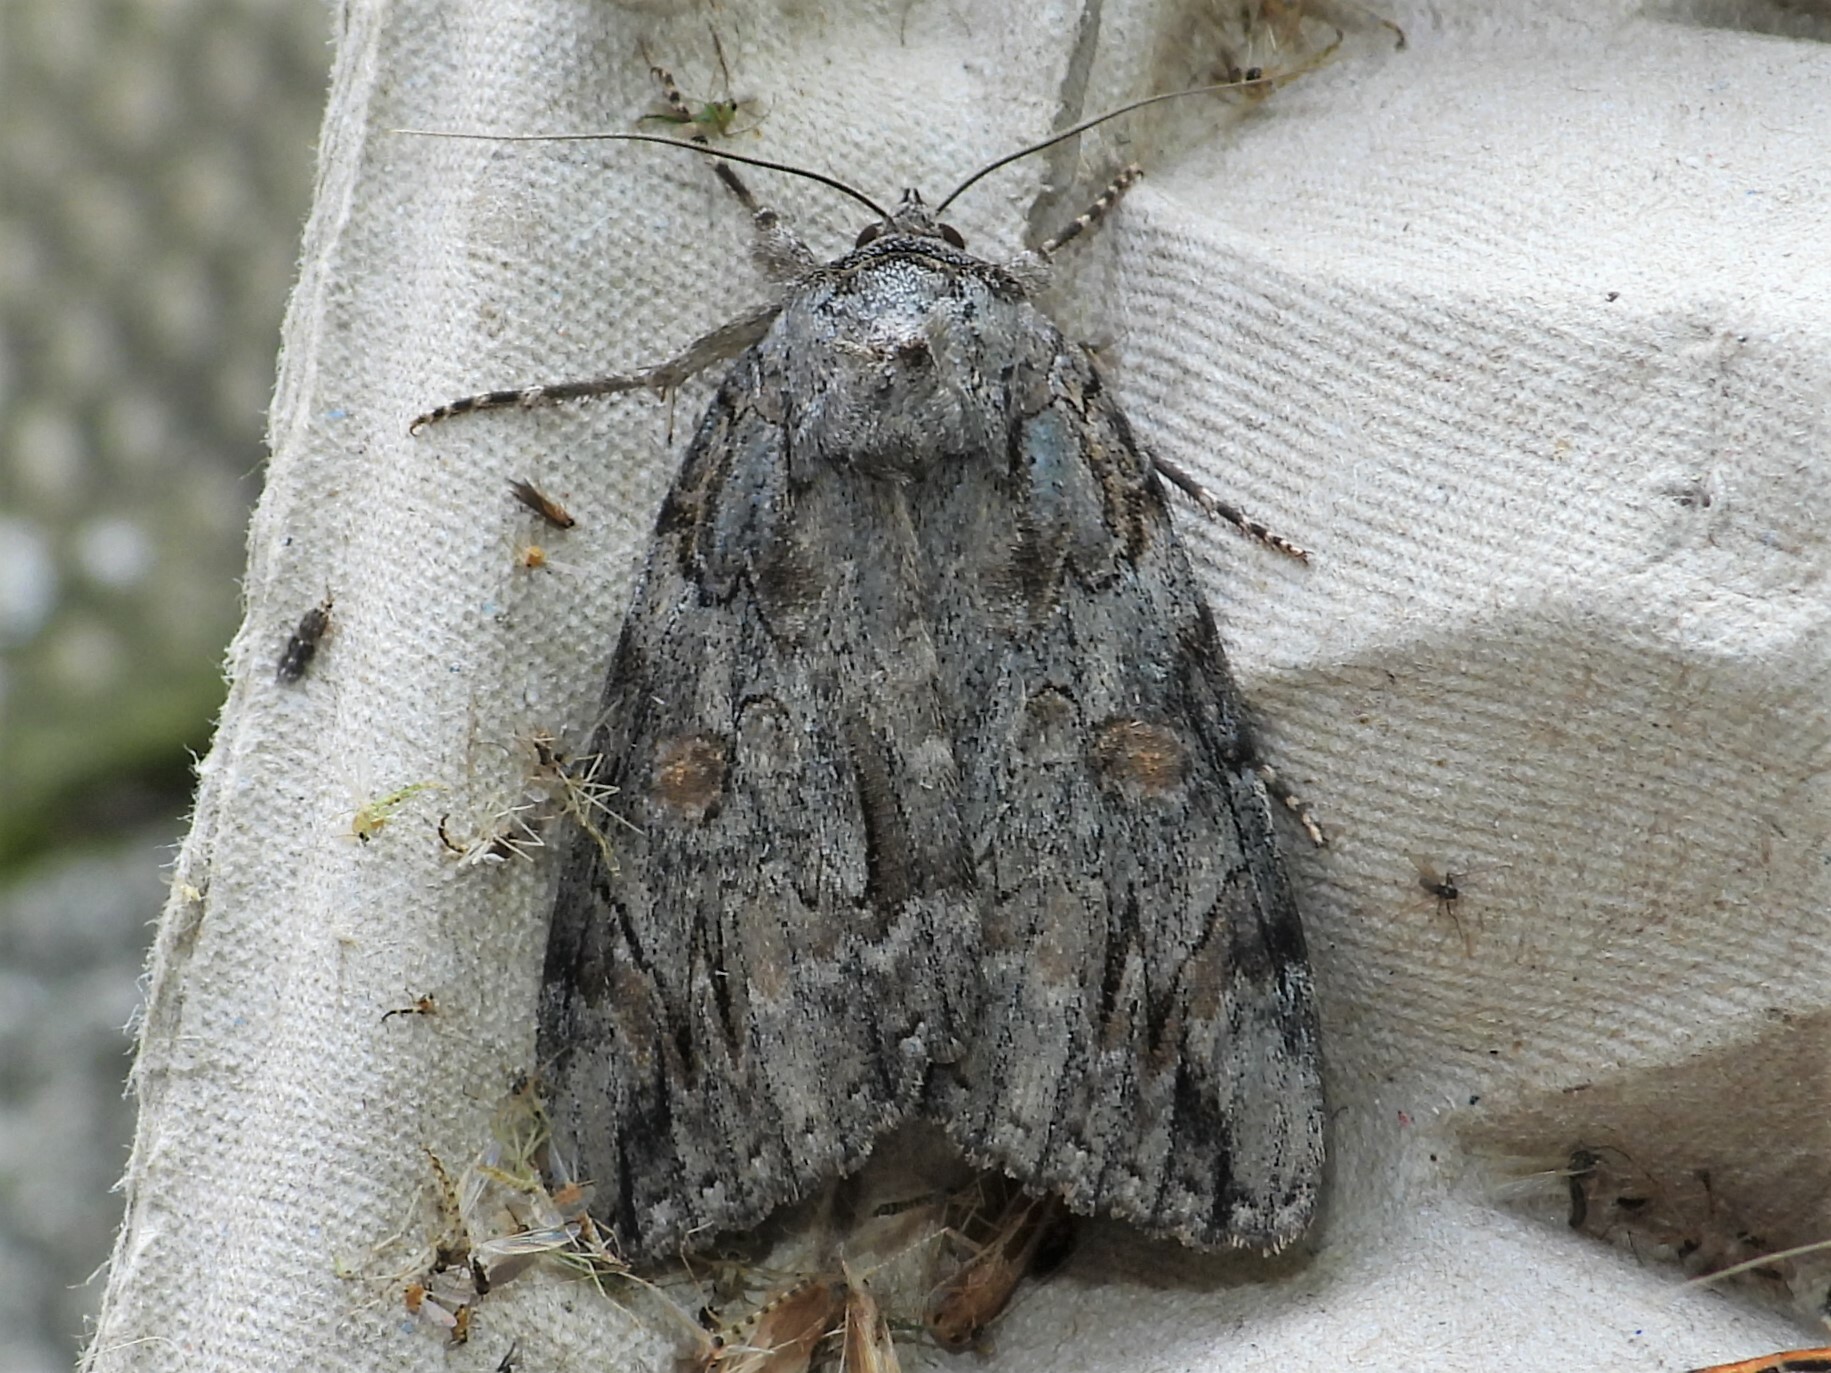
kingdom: Animalia
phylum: Arthropoda
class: Insecta
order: Lepidoptera
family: Erebidae
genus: Catocala
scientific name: Catocala neogama
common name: Bride underwing
